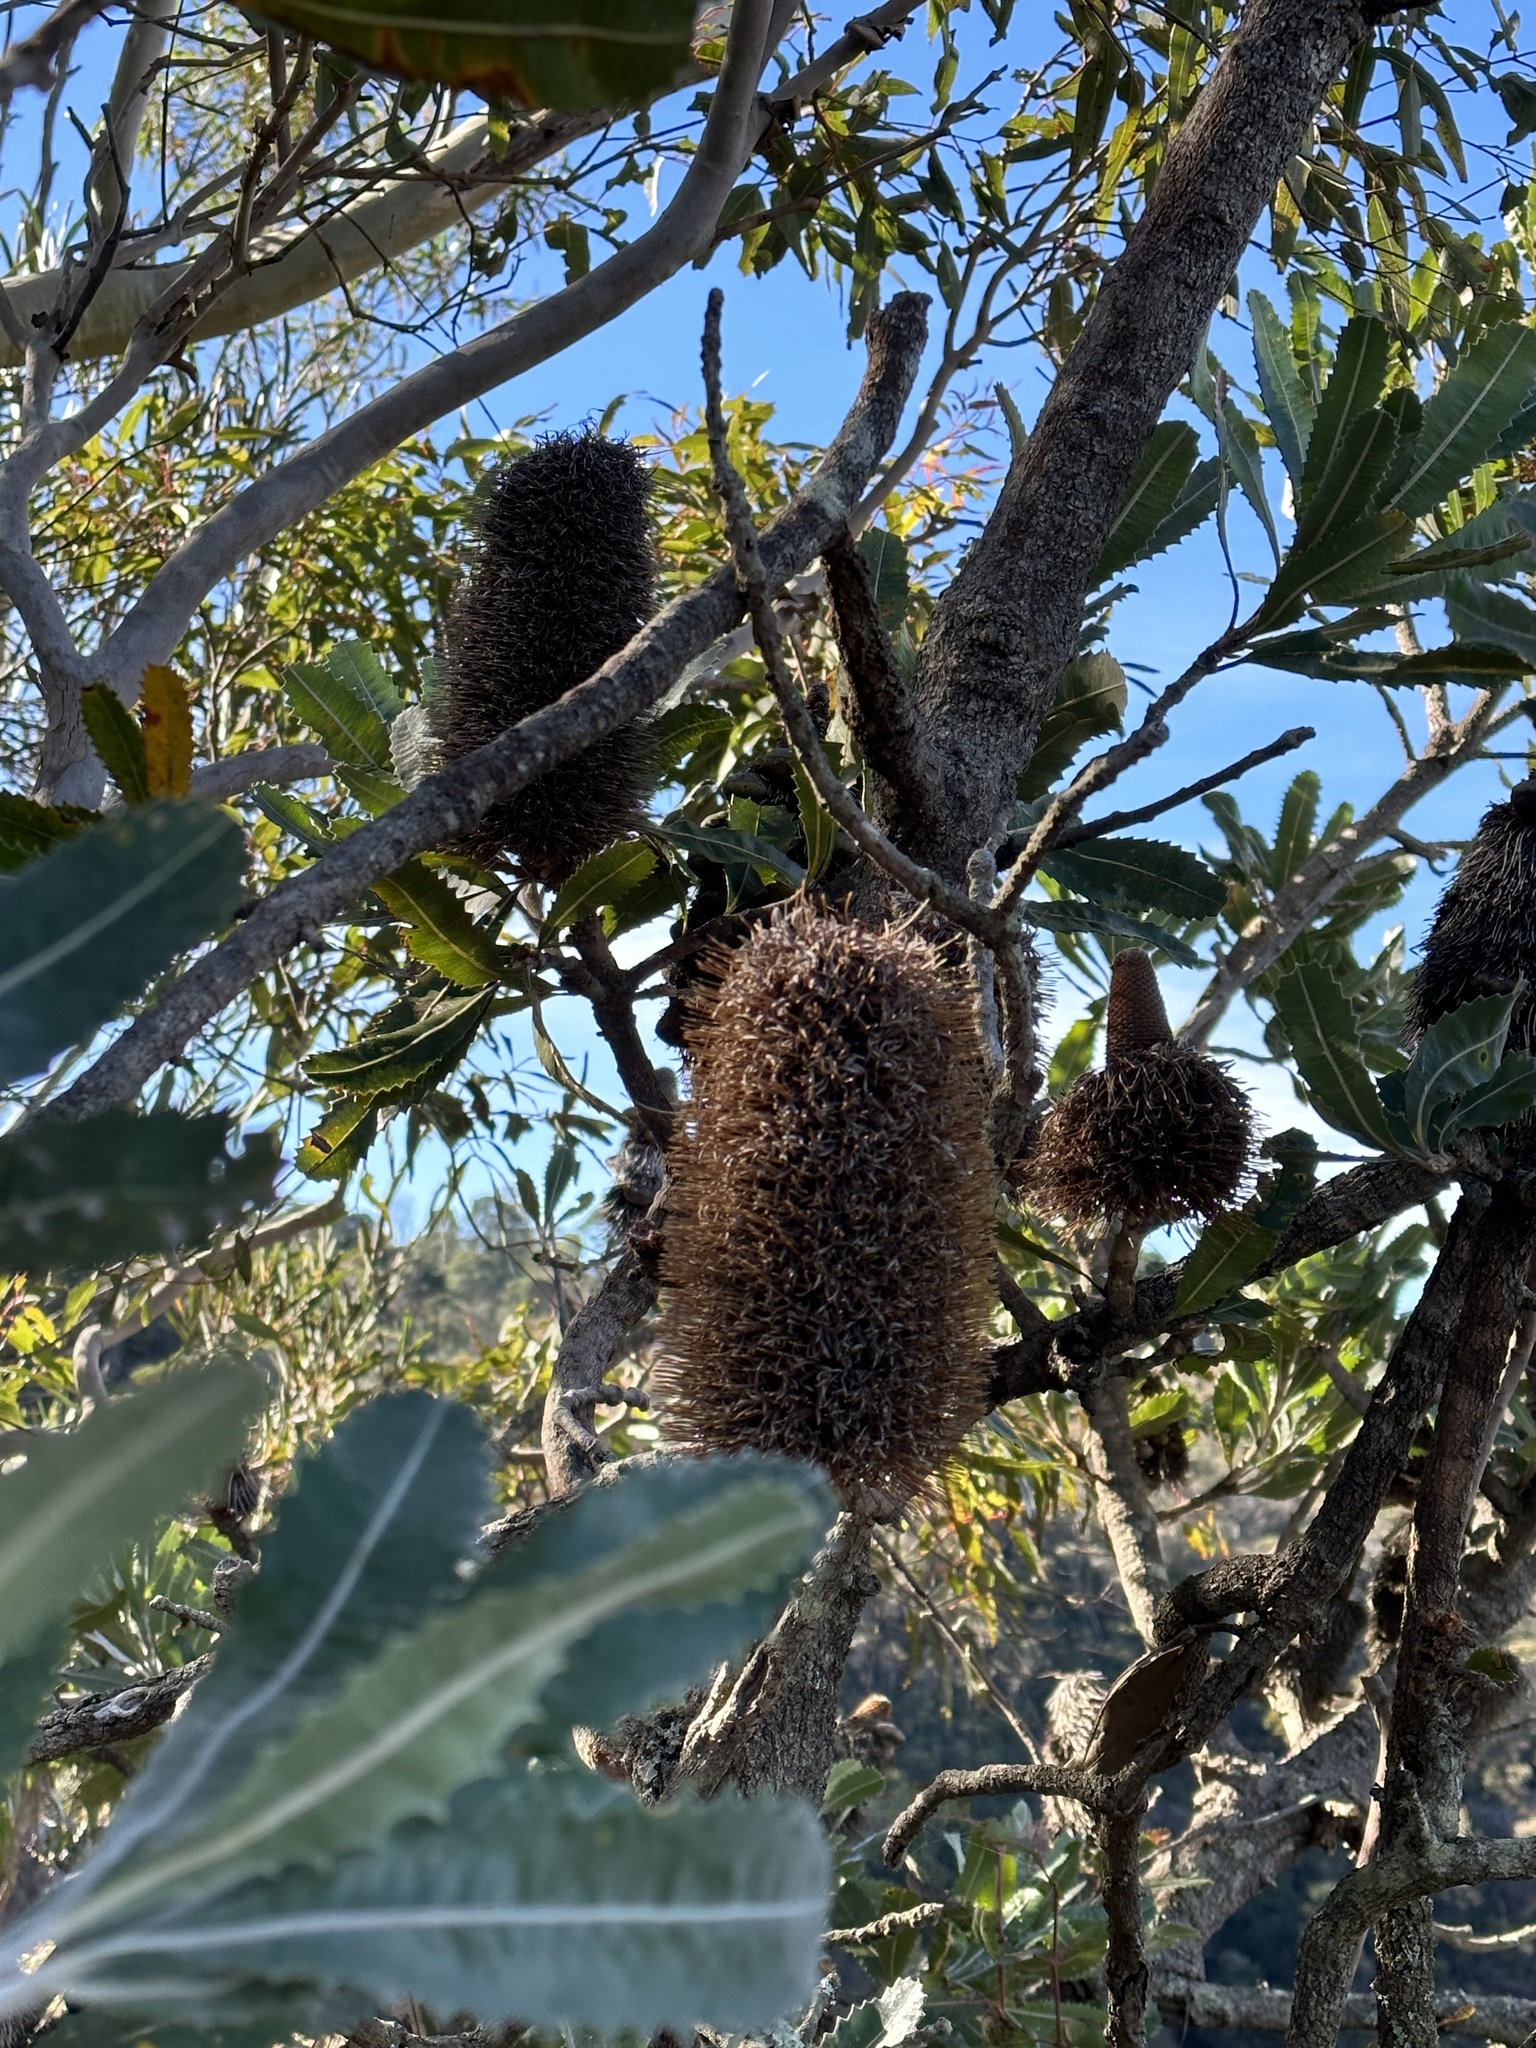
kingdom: Plantae
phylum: Tracheophyta
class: Magnoliopsida
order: Proteales
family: Proteaceae
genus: Banksia
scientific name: Banksia serrata
